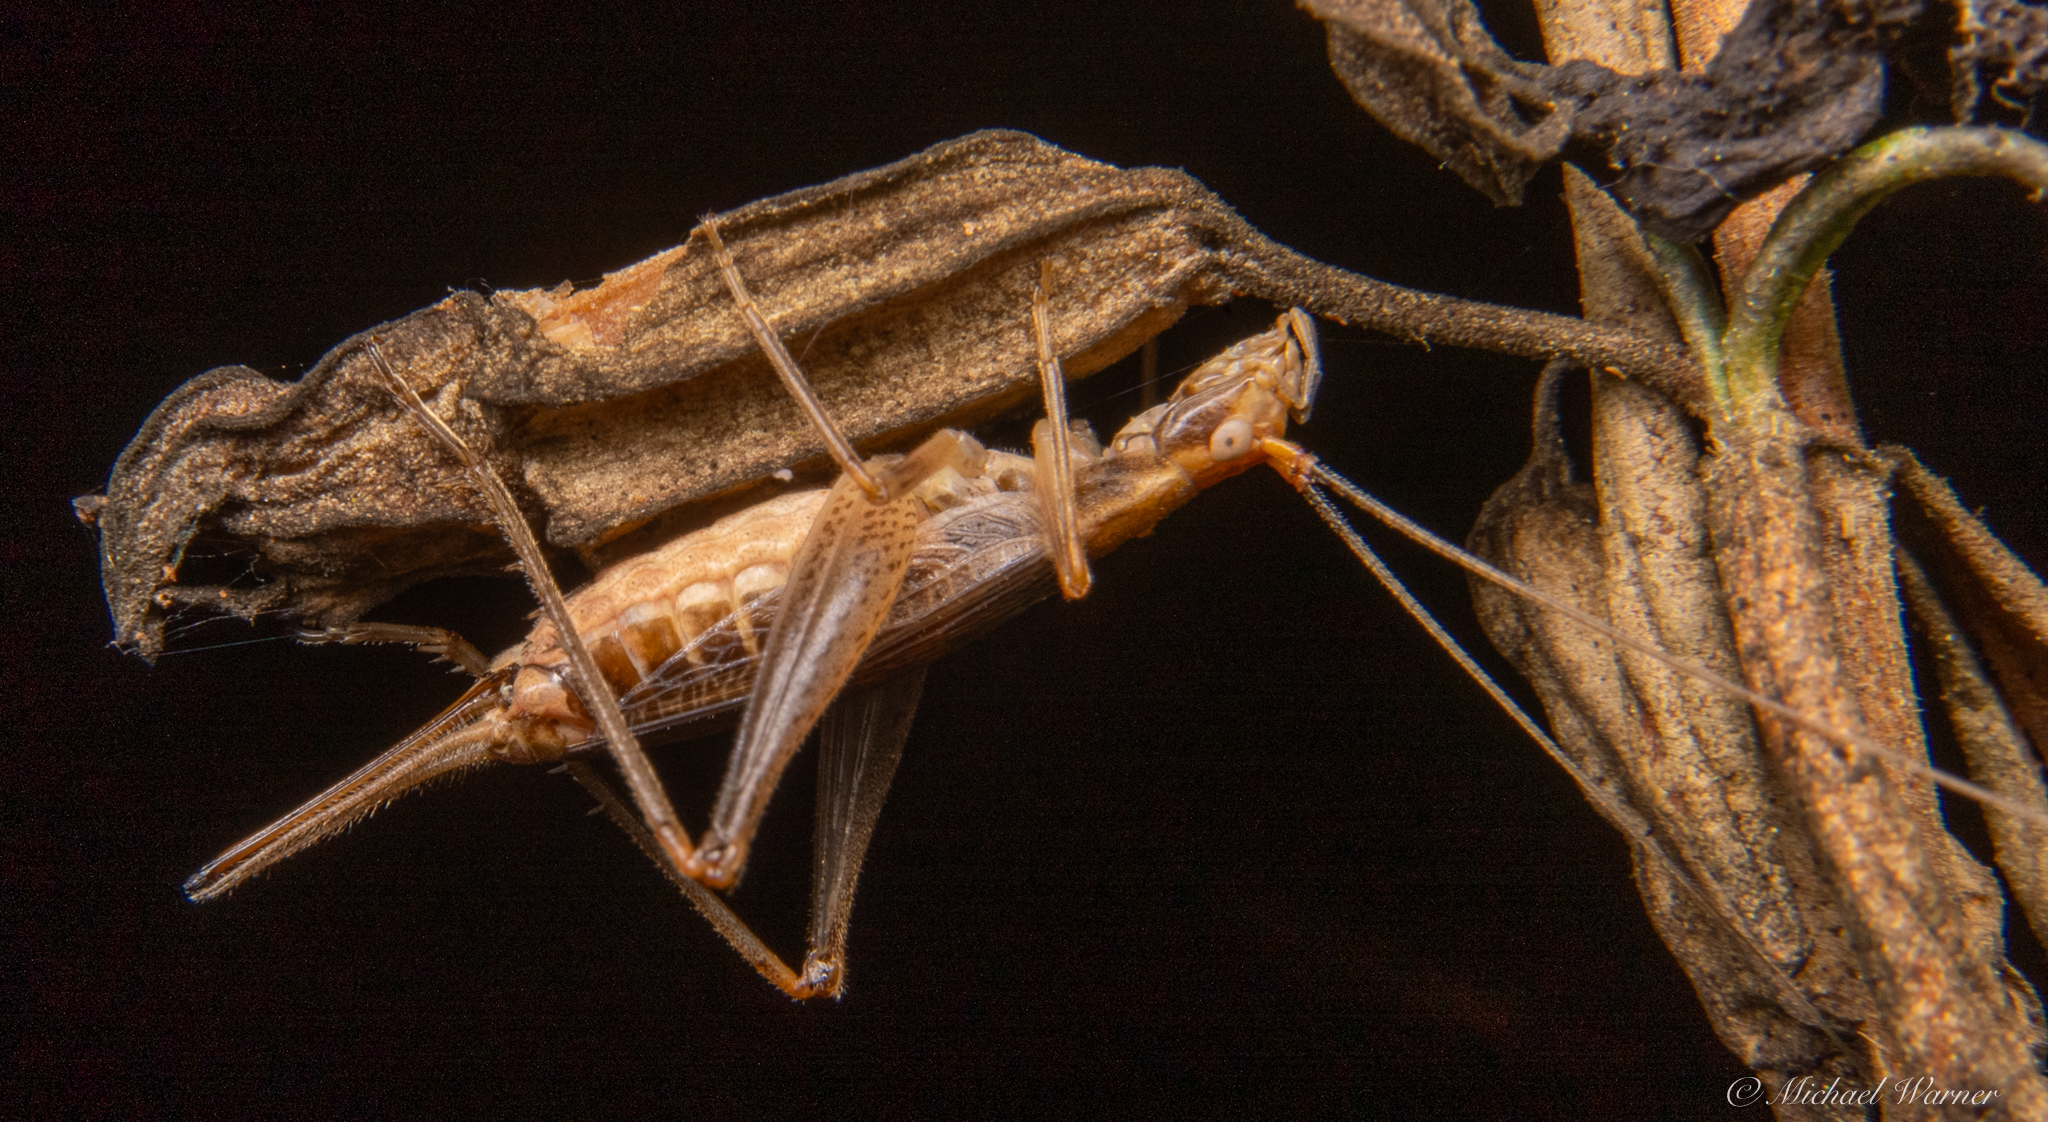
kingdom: Animalia
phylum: Arthropoda
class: Insecta
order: Orthoptera
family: Gryllidae
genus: Oecanthus
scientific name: Oecanthus californicus
